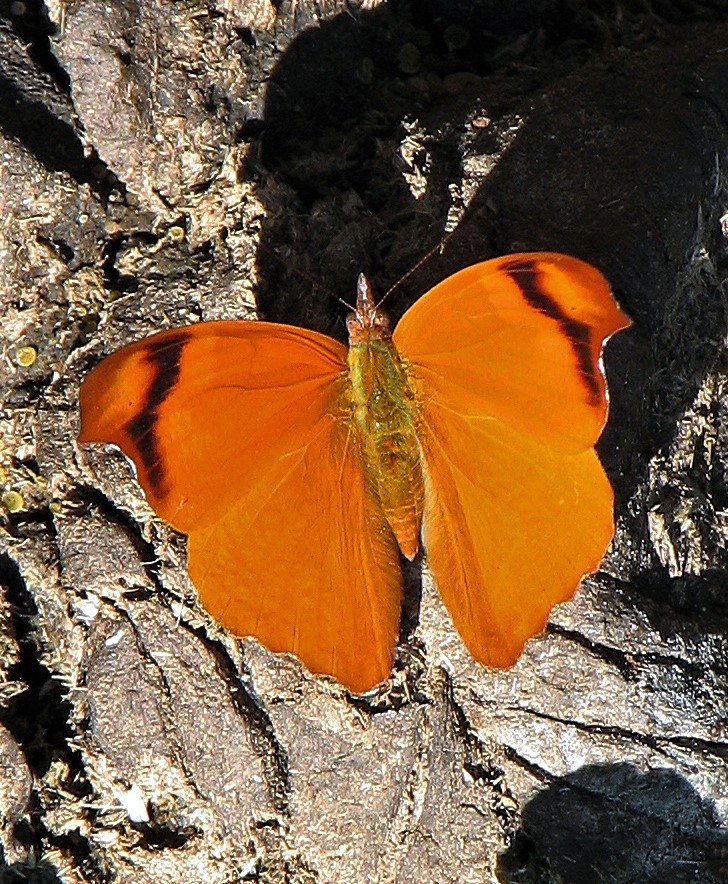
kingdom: Animalia
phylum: Arthropoda
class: Insecta
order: Lepidoptera
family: Nymphalidae
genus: Temenis
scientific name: Temenis laothoe
